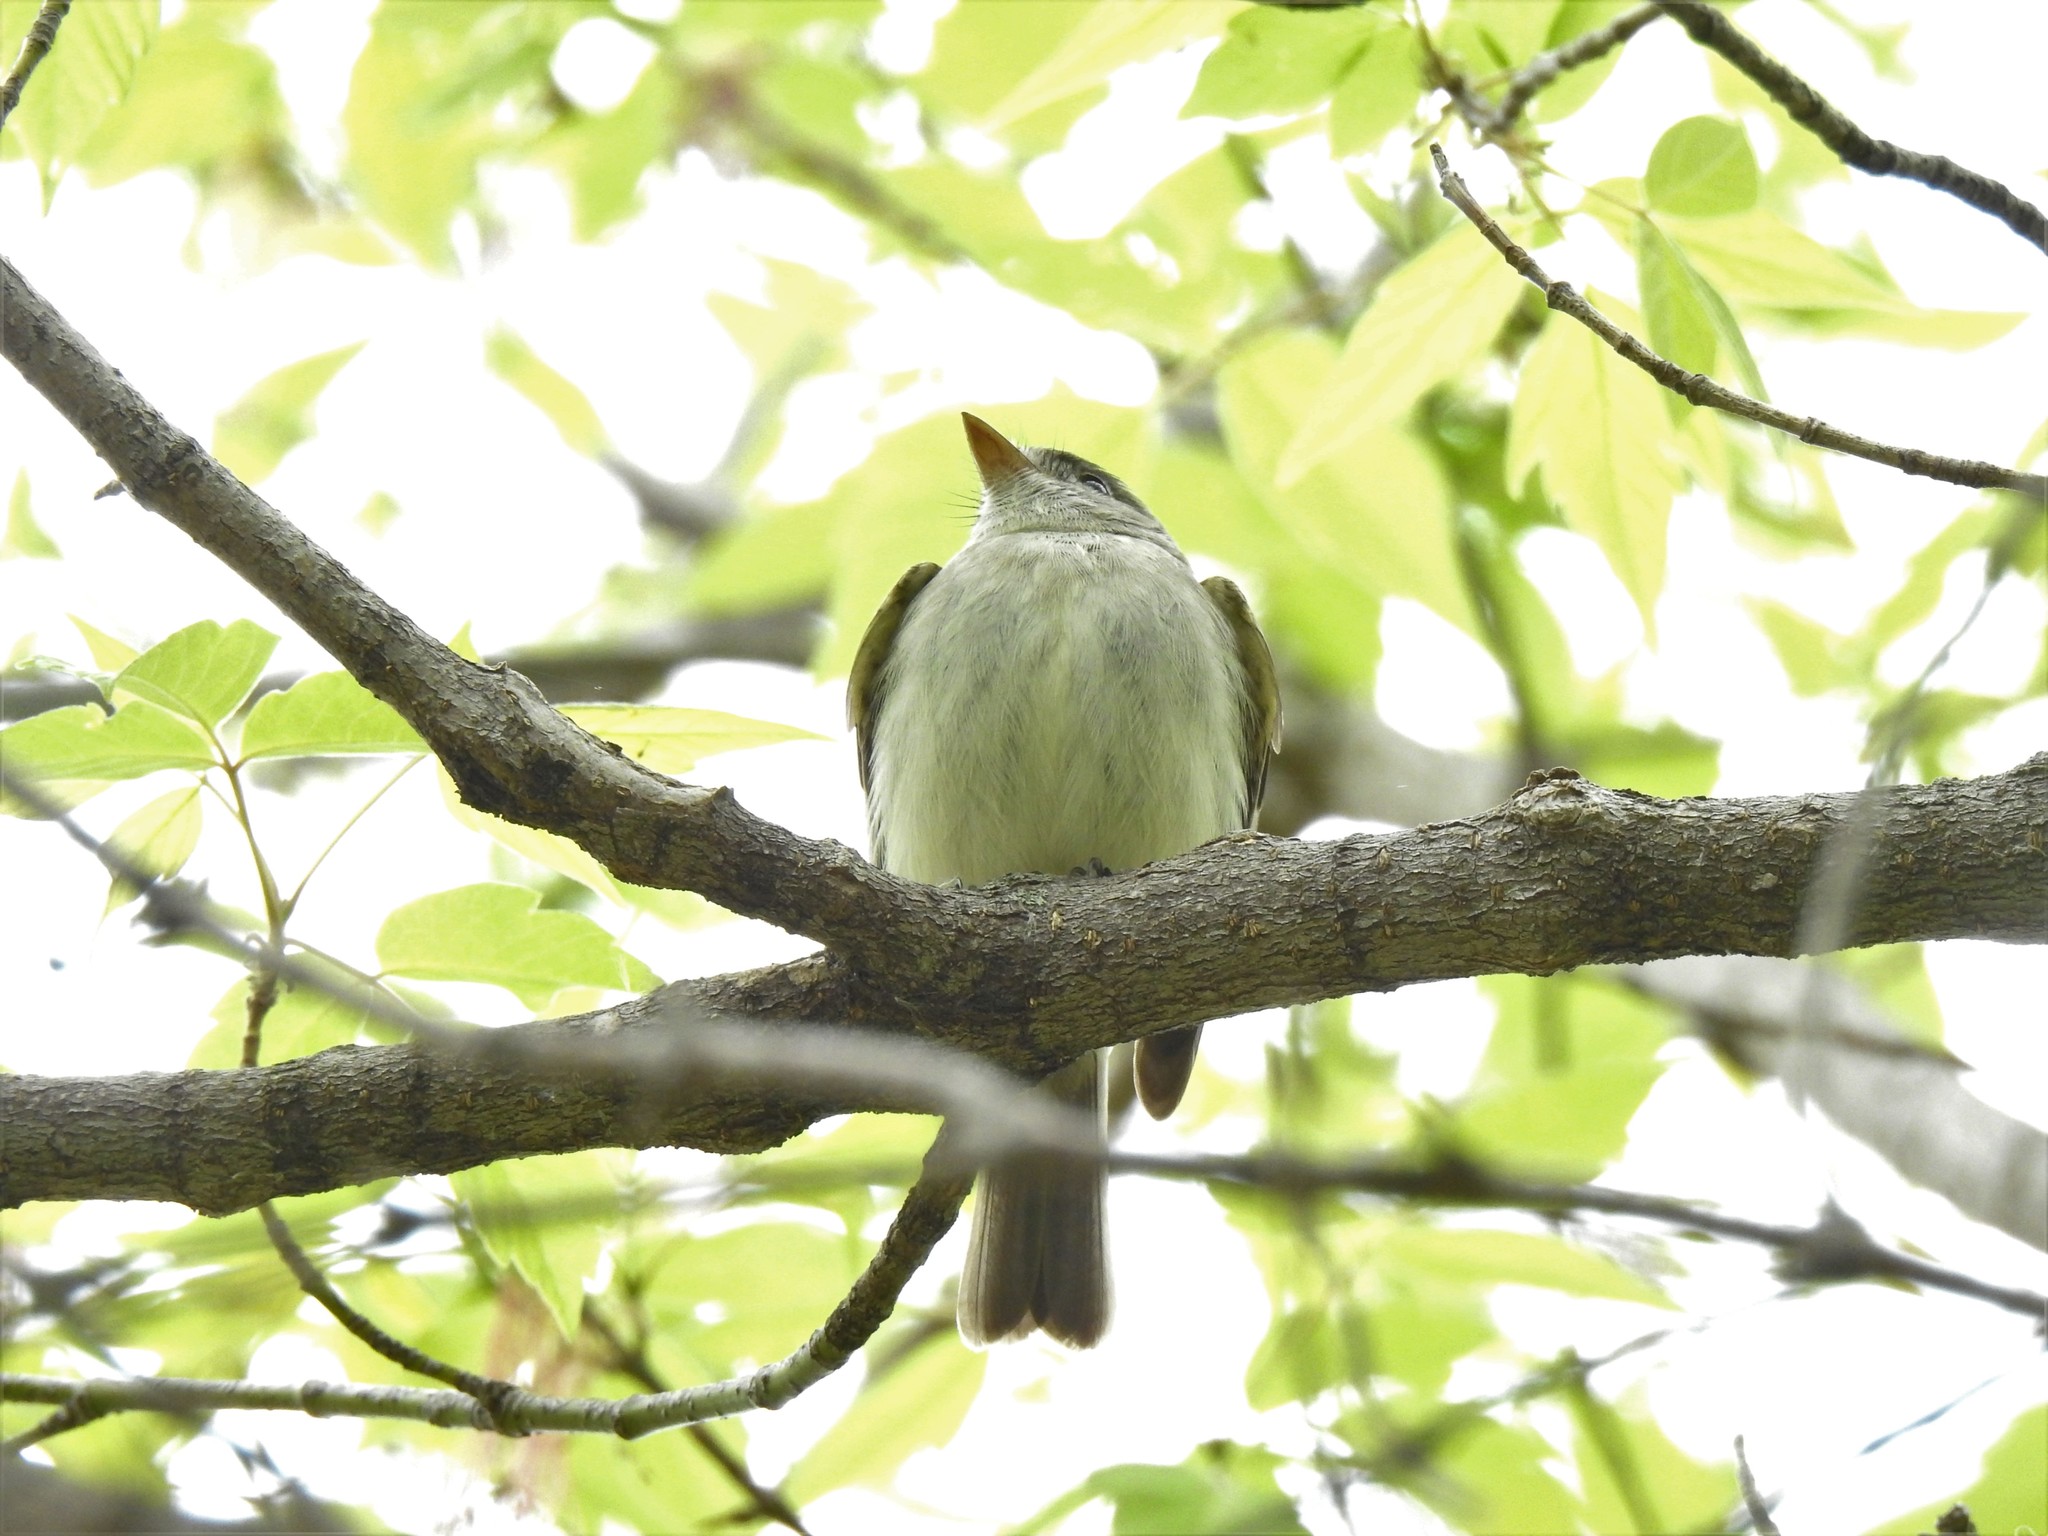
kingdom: Animalia
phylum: Chordata
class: Aves
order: Passeriformes
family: Tyrannidae
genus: Contopus
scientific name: Contopus virens
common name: Eastern wood-pewee
